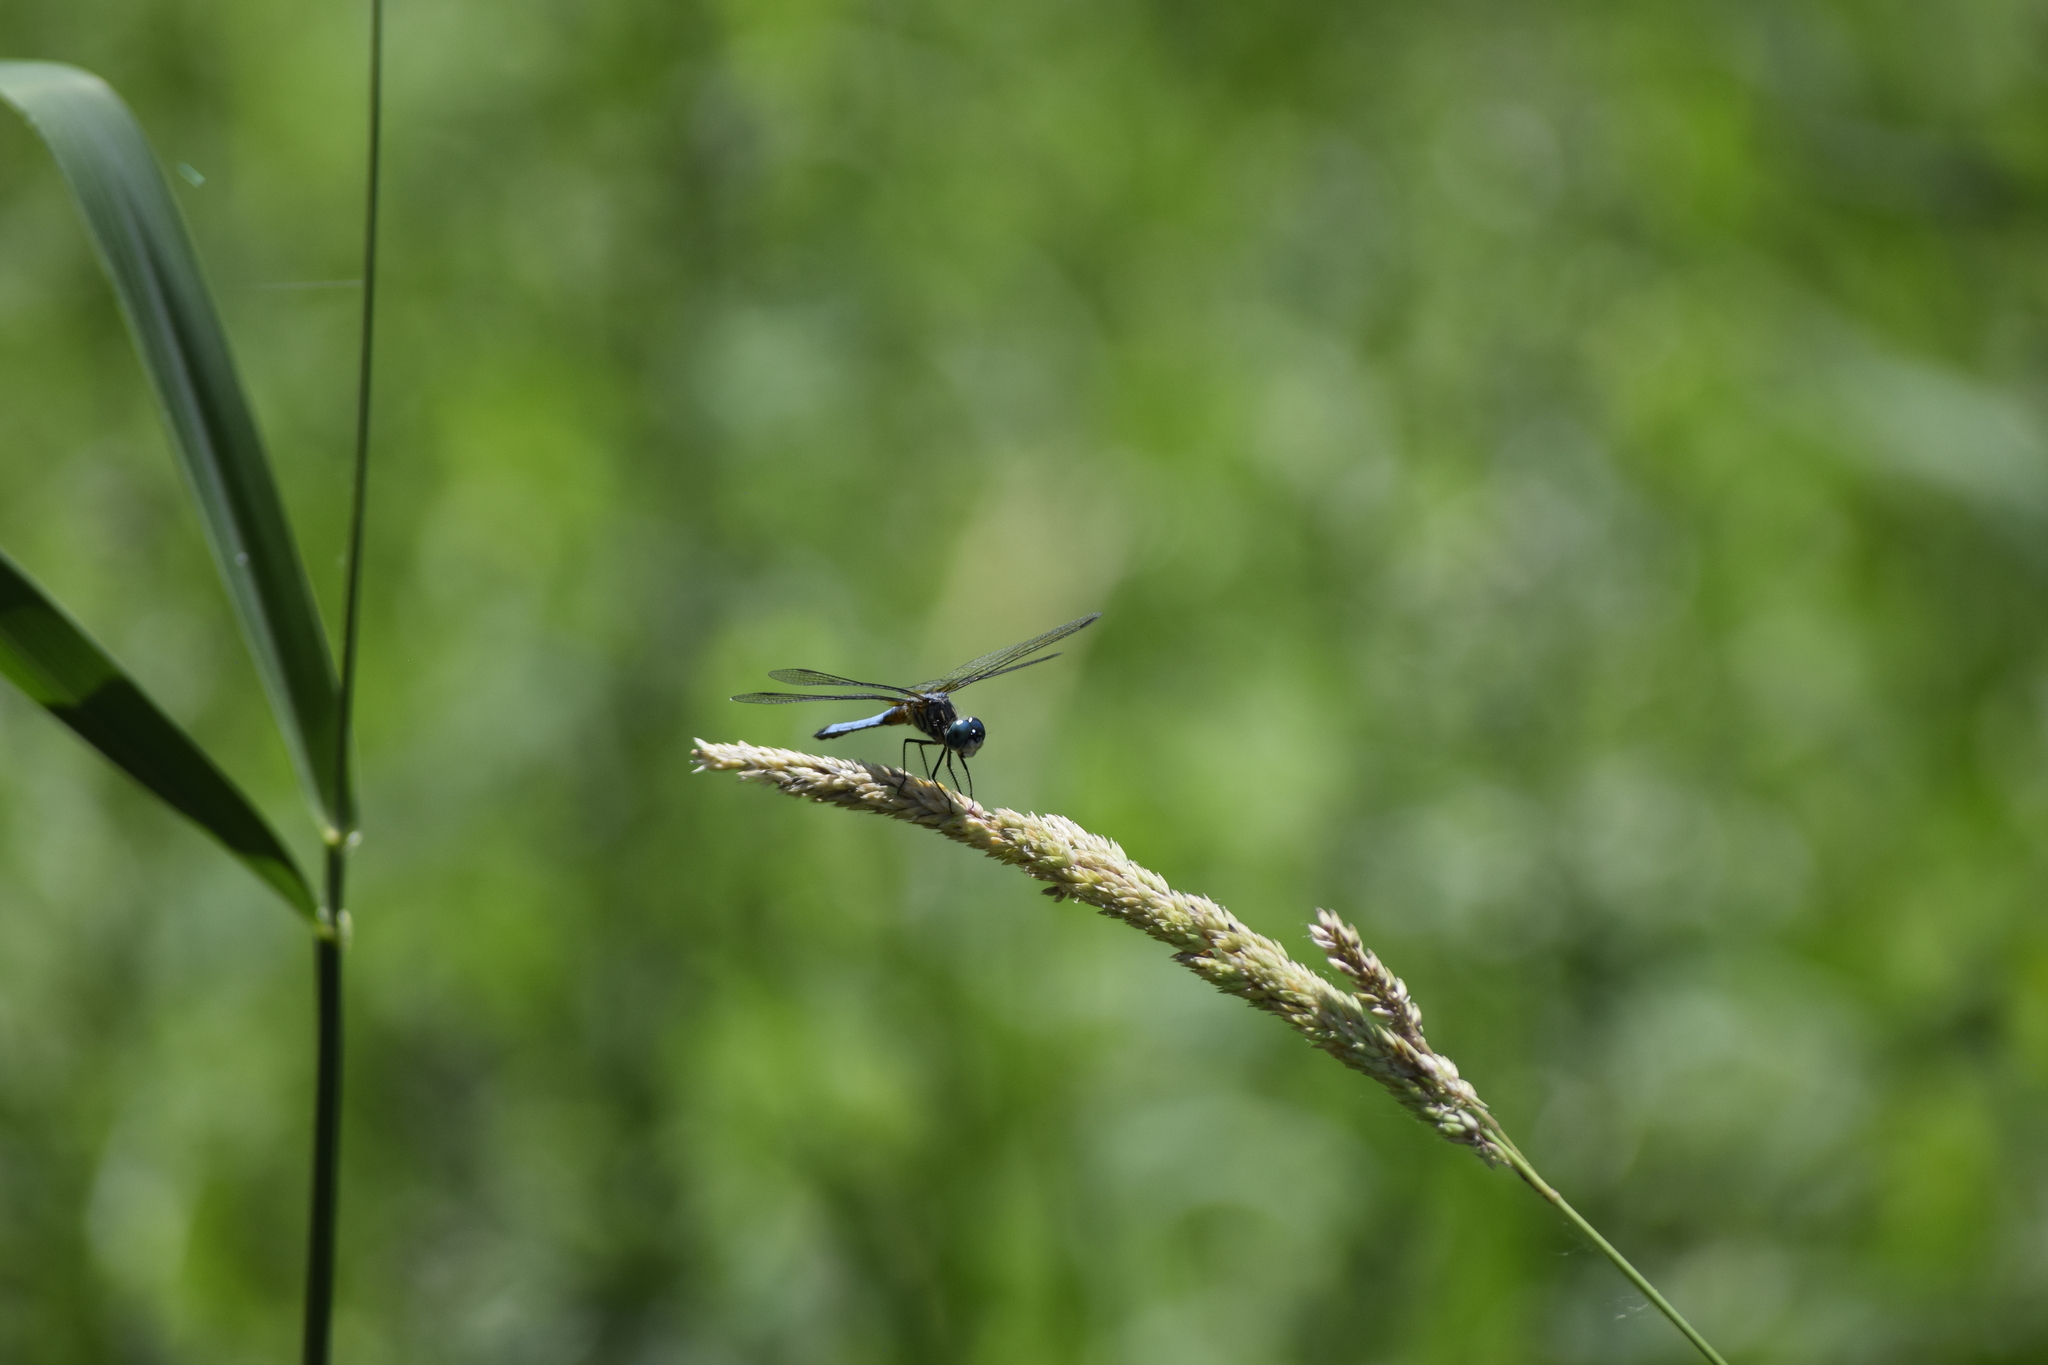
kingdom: Animalia
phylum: Arthropoda
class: Insecta
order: Odonata
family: Libellulidae
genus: Pachydiplax
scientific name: Pachydiplax longipennis
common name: Blue dasher
